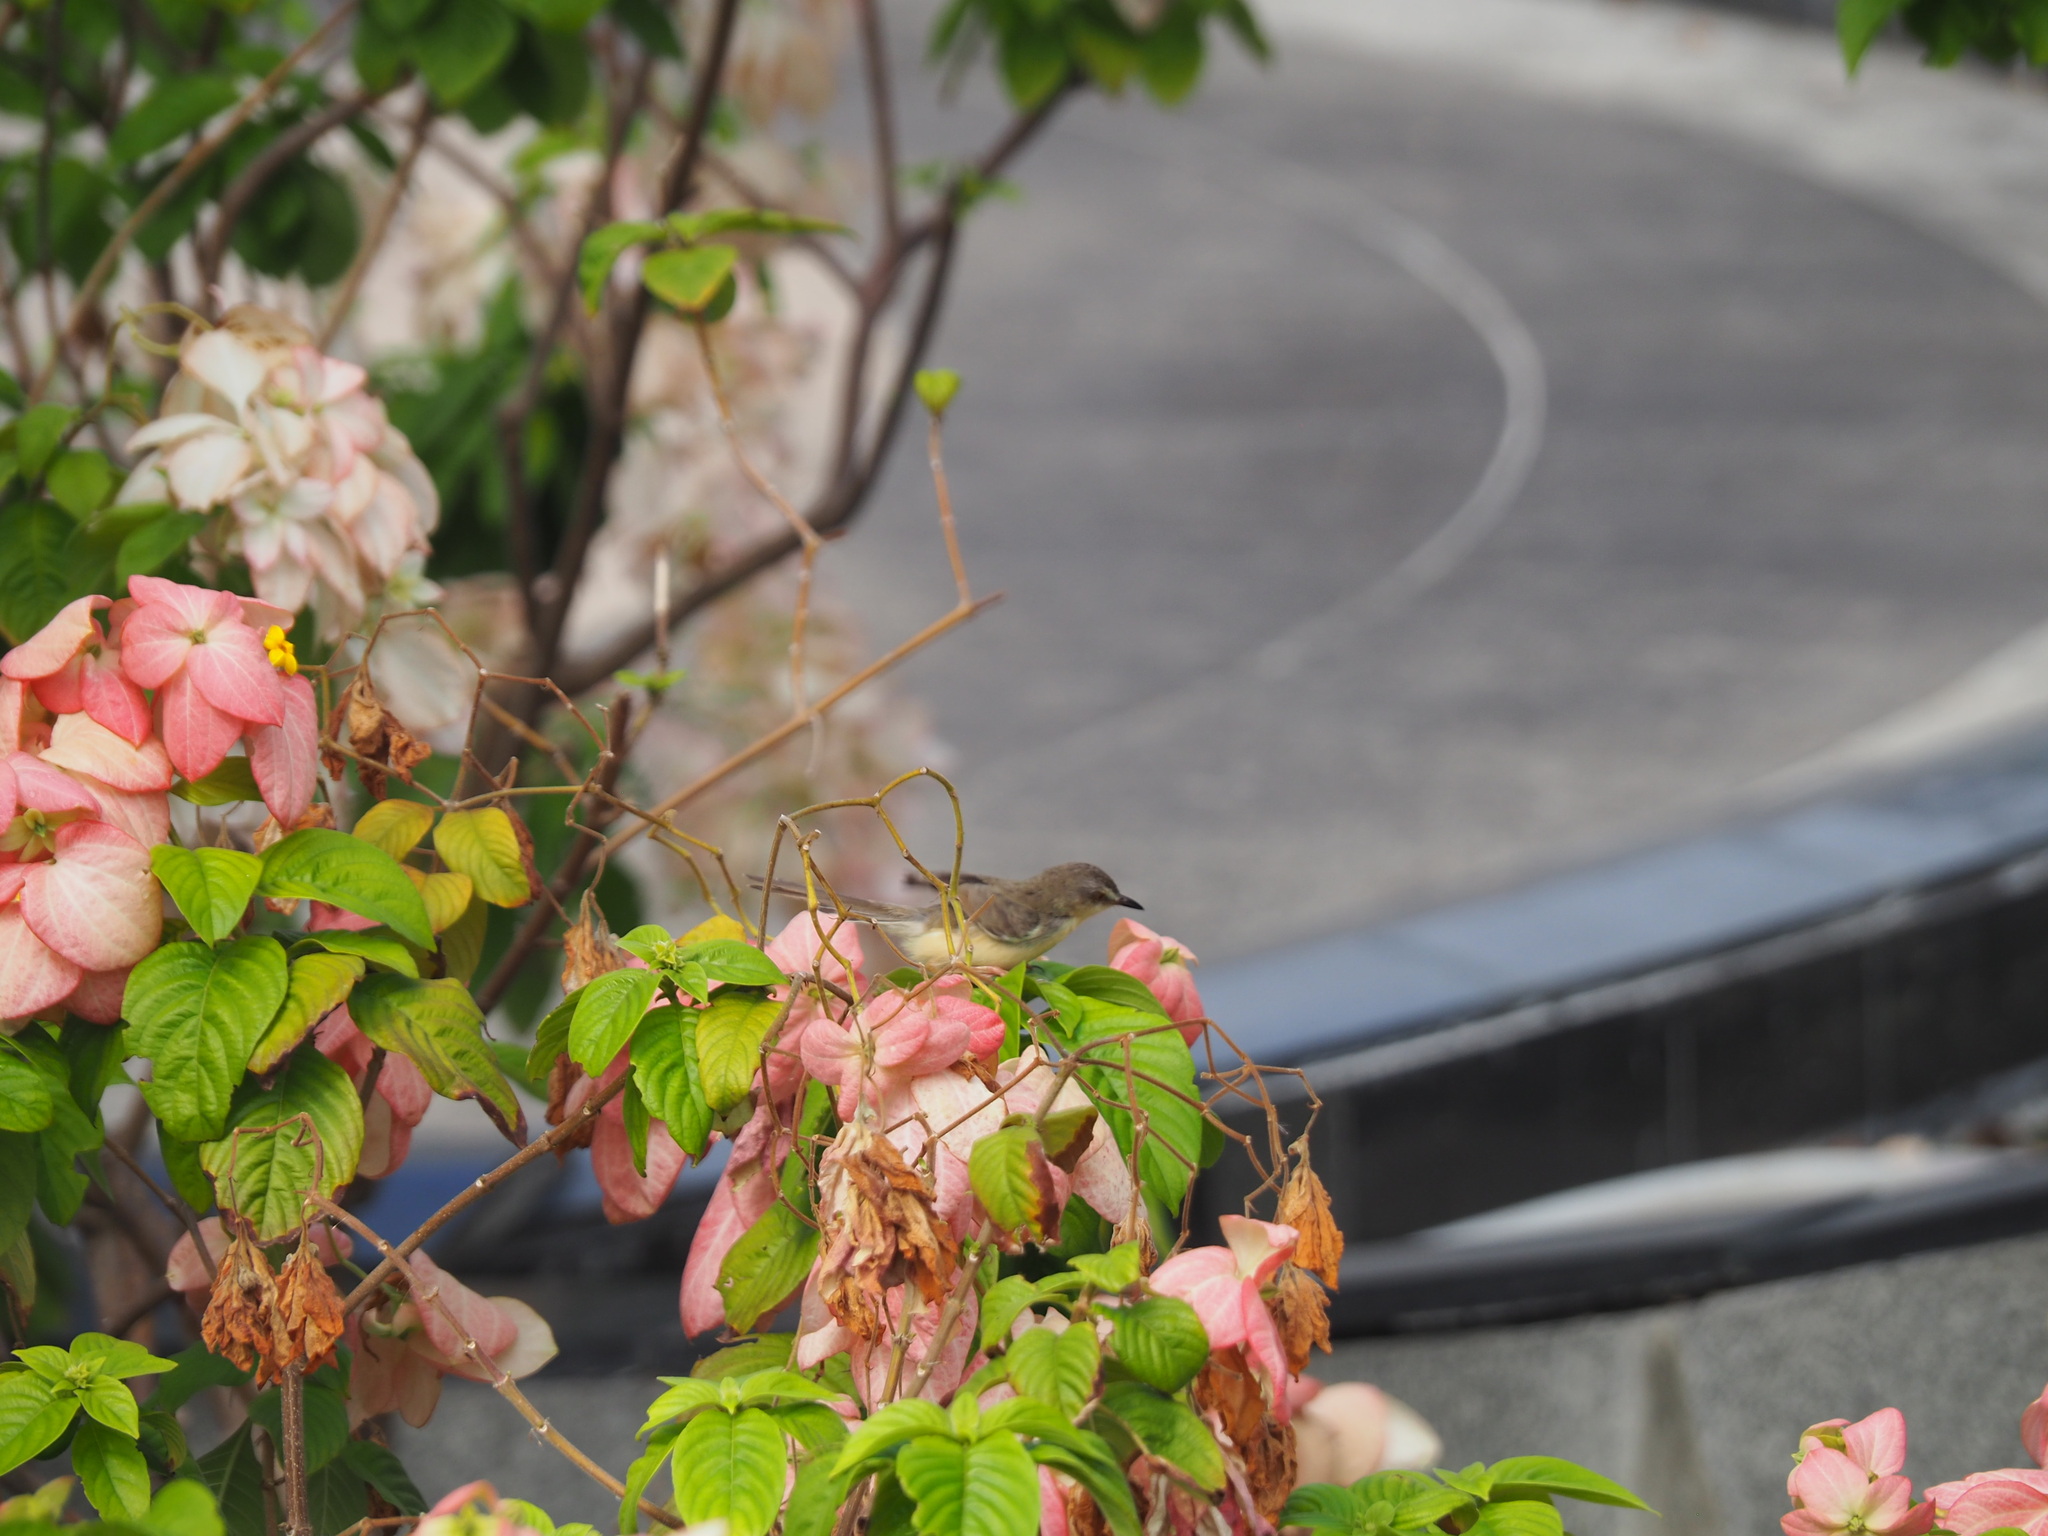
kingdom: Animalia
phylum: Chordata
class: Aves
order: Passeriformes
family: Cisticolidae
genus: Prinia
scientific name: Prinia inornata
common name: Plain prinia
